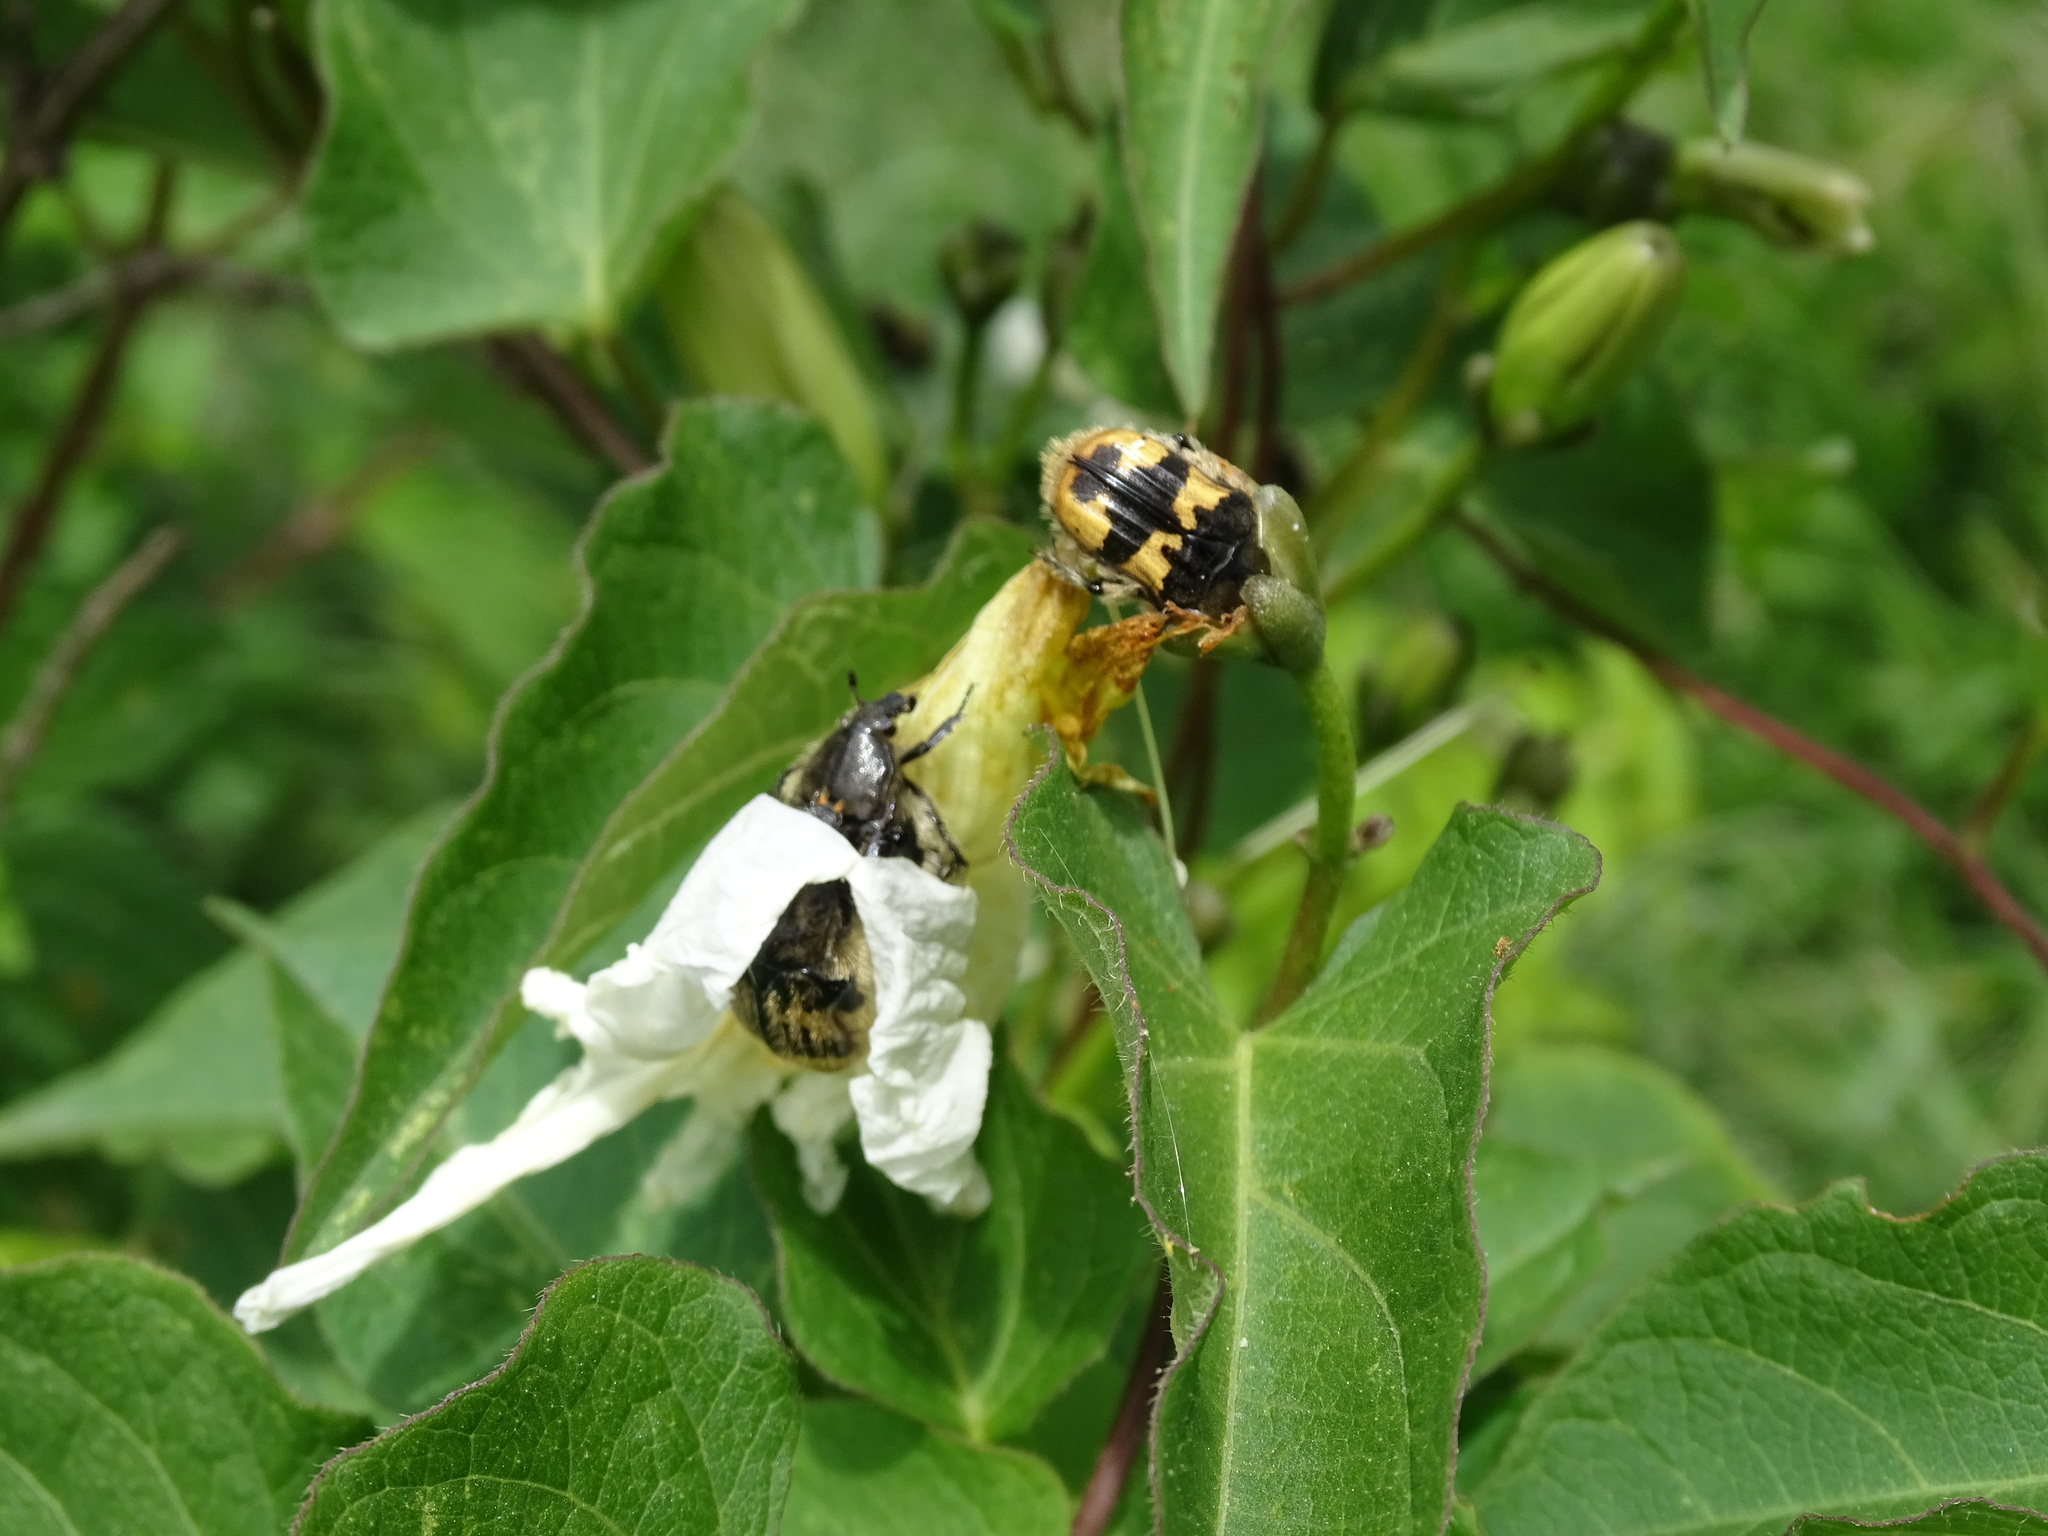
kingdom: Plantae
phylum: Tracheophyta
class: Magnoliopsida
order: Solanales
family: Convolvulaceae
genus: Ipomoea
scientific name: Ipomoea proxima
